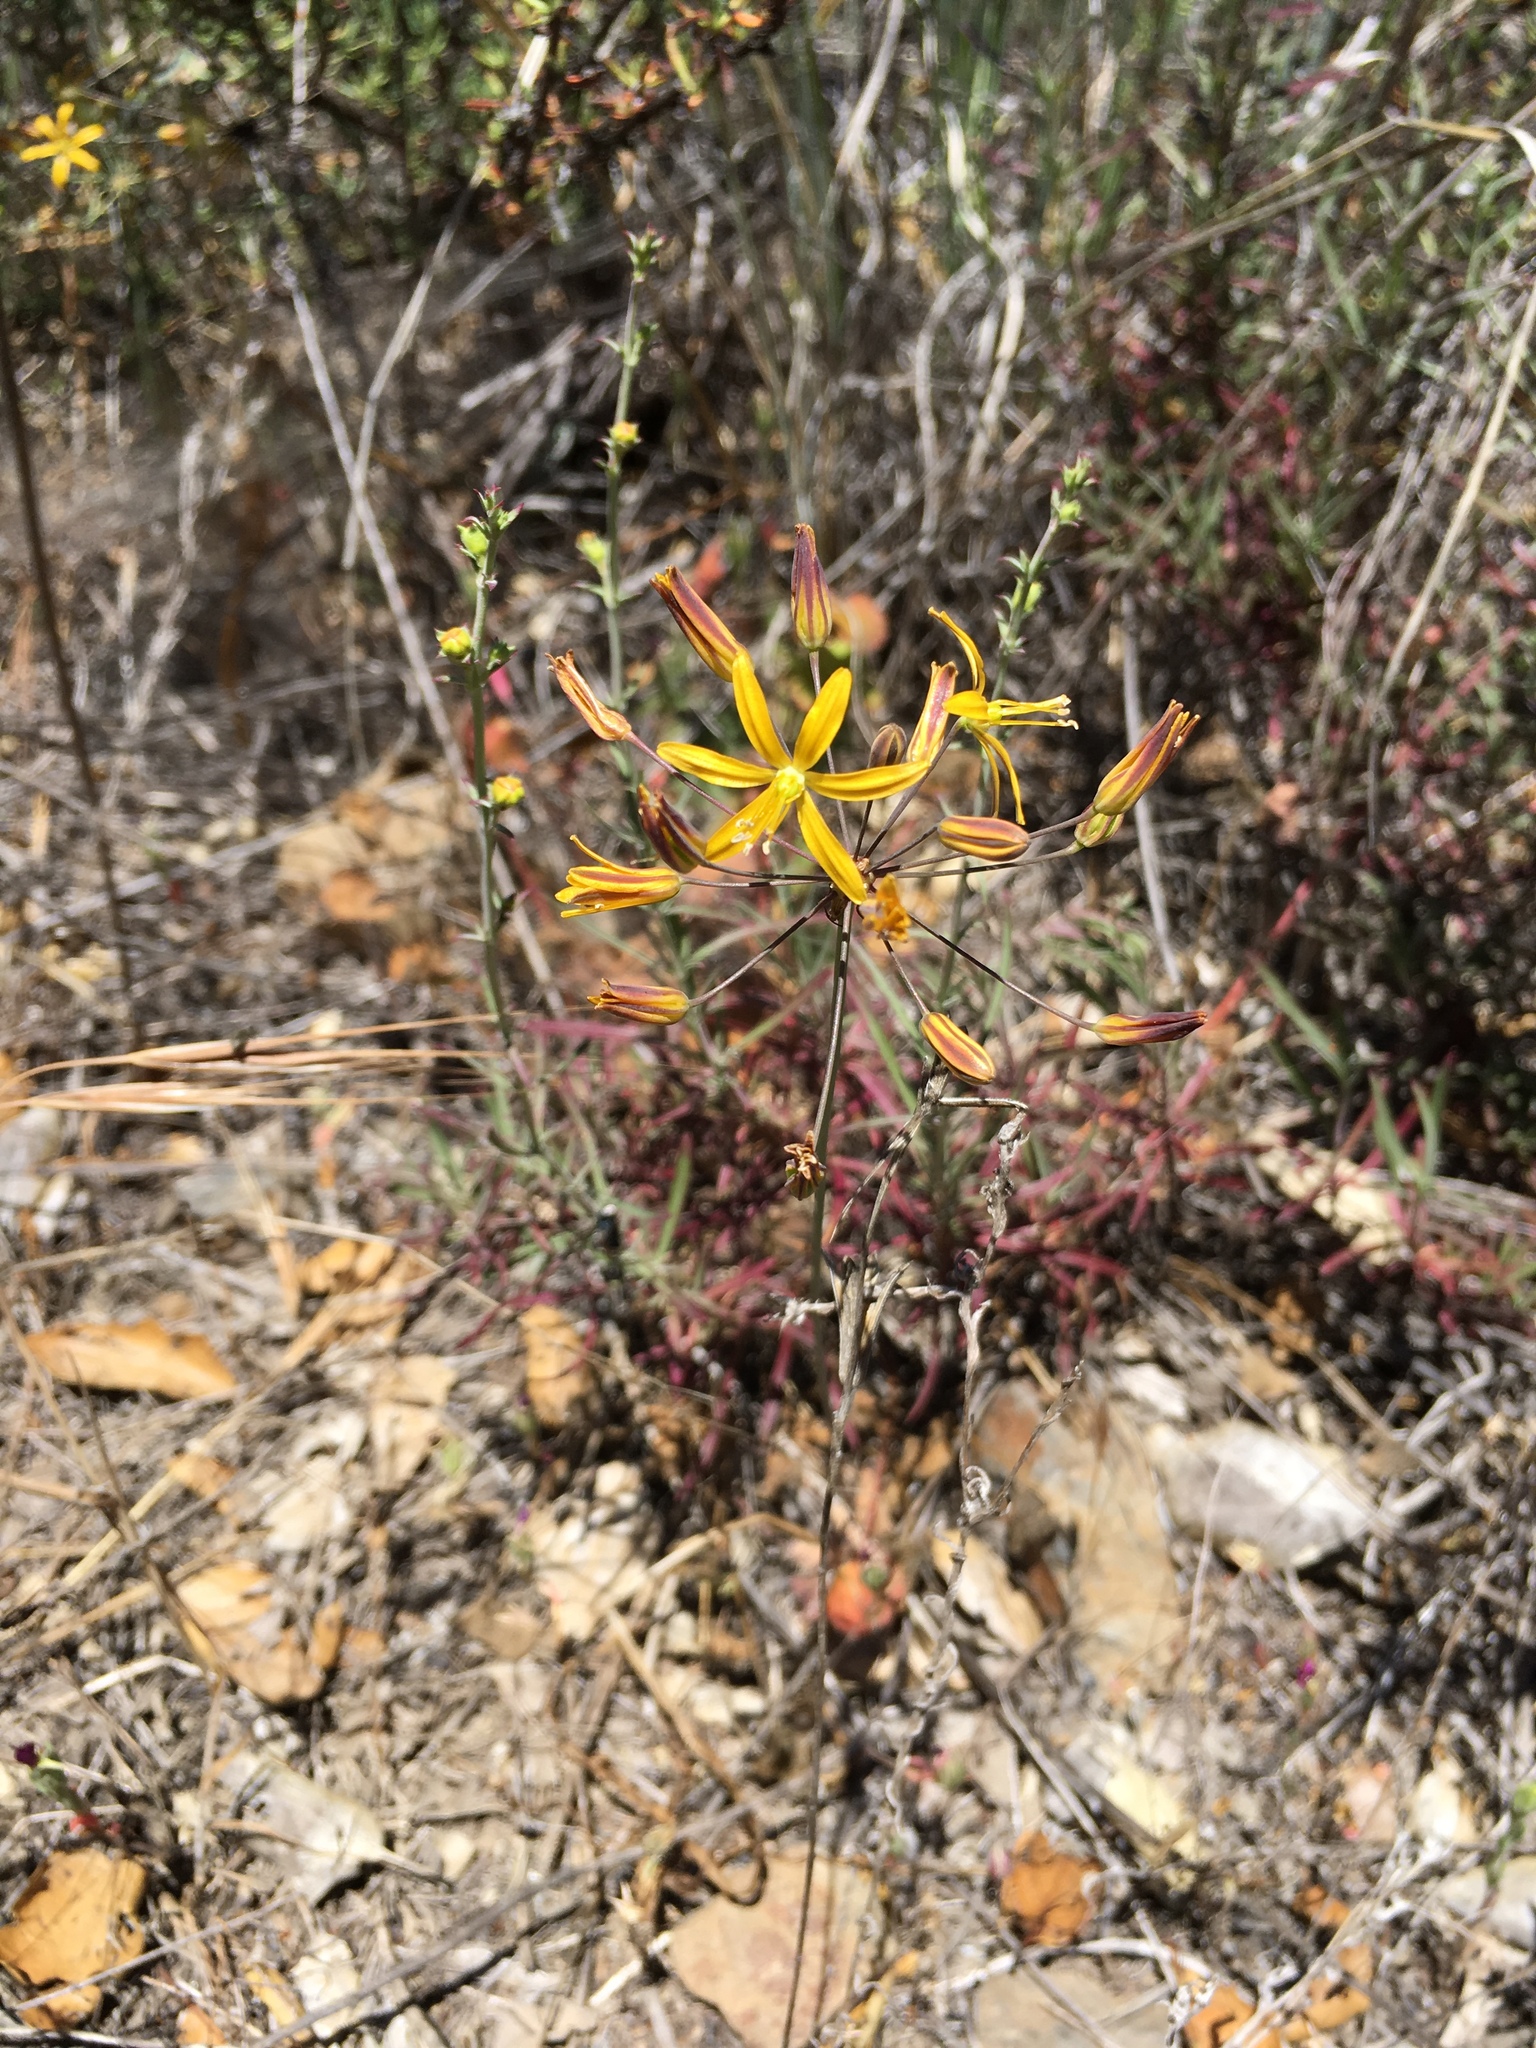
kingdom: Plantae
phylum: Tracheophyta
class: Liliopsida
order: Asparagales
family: Asparagaceae
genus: Bloomeria
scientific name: Bloomeria crocea
